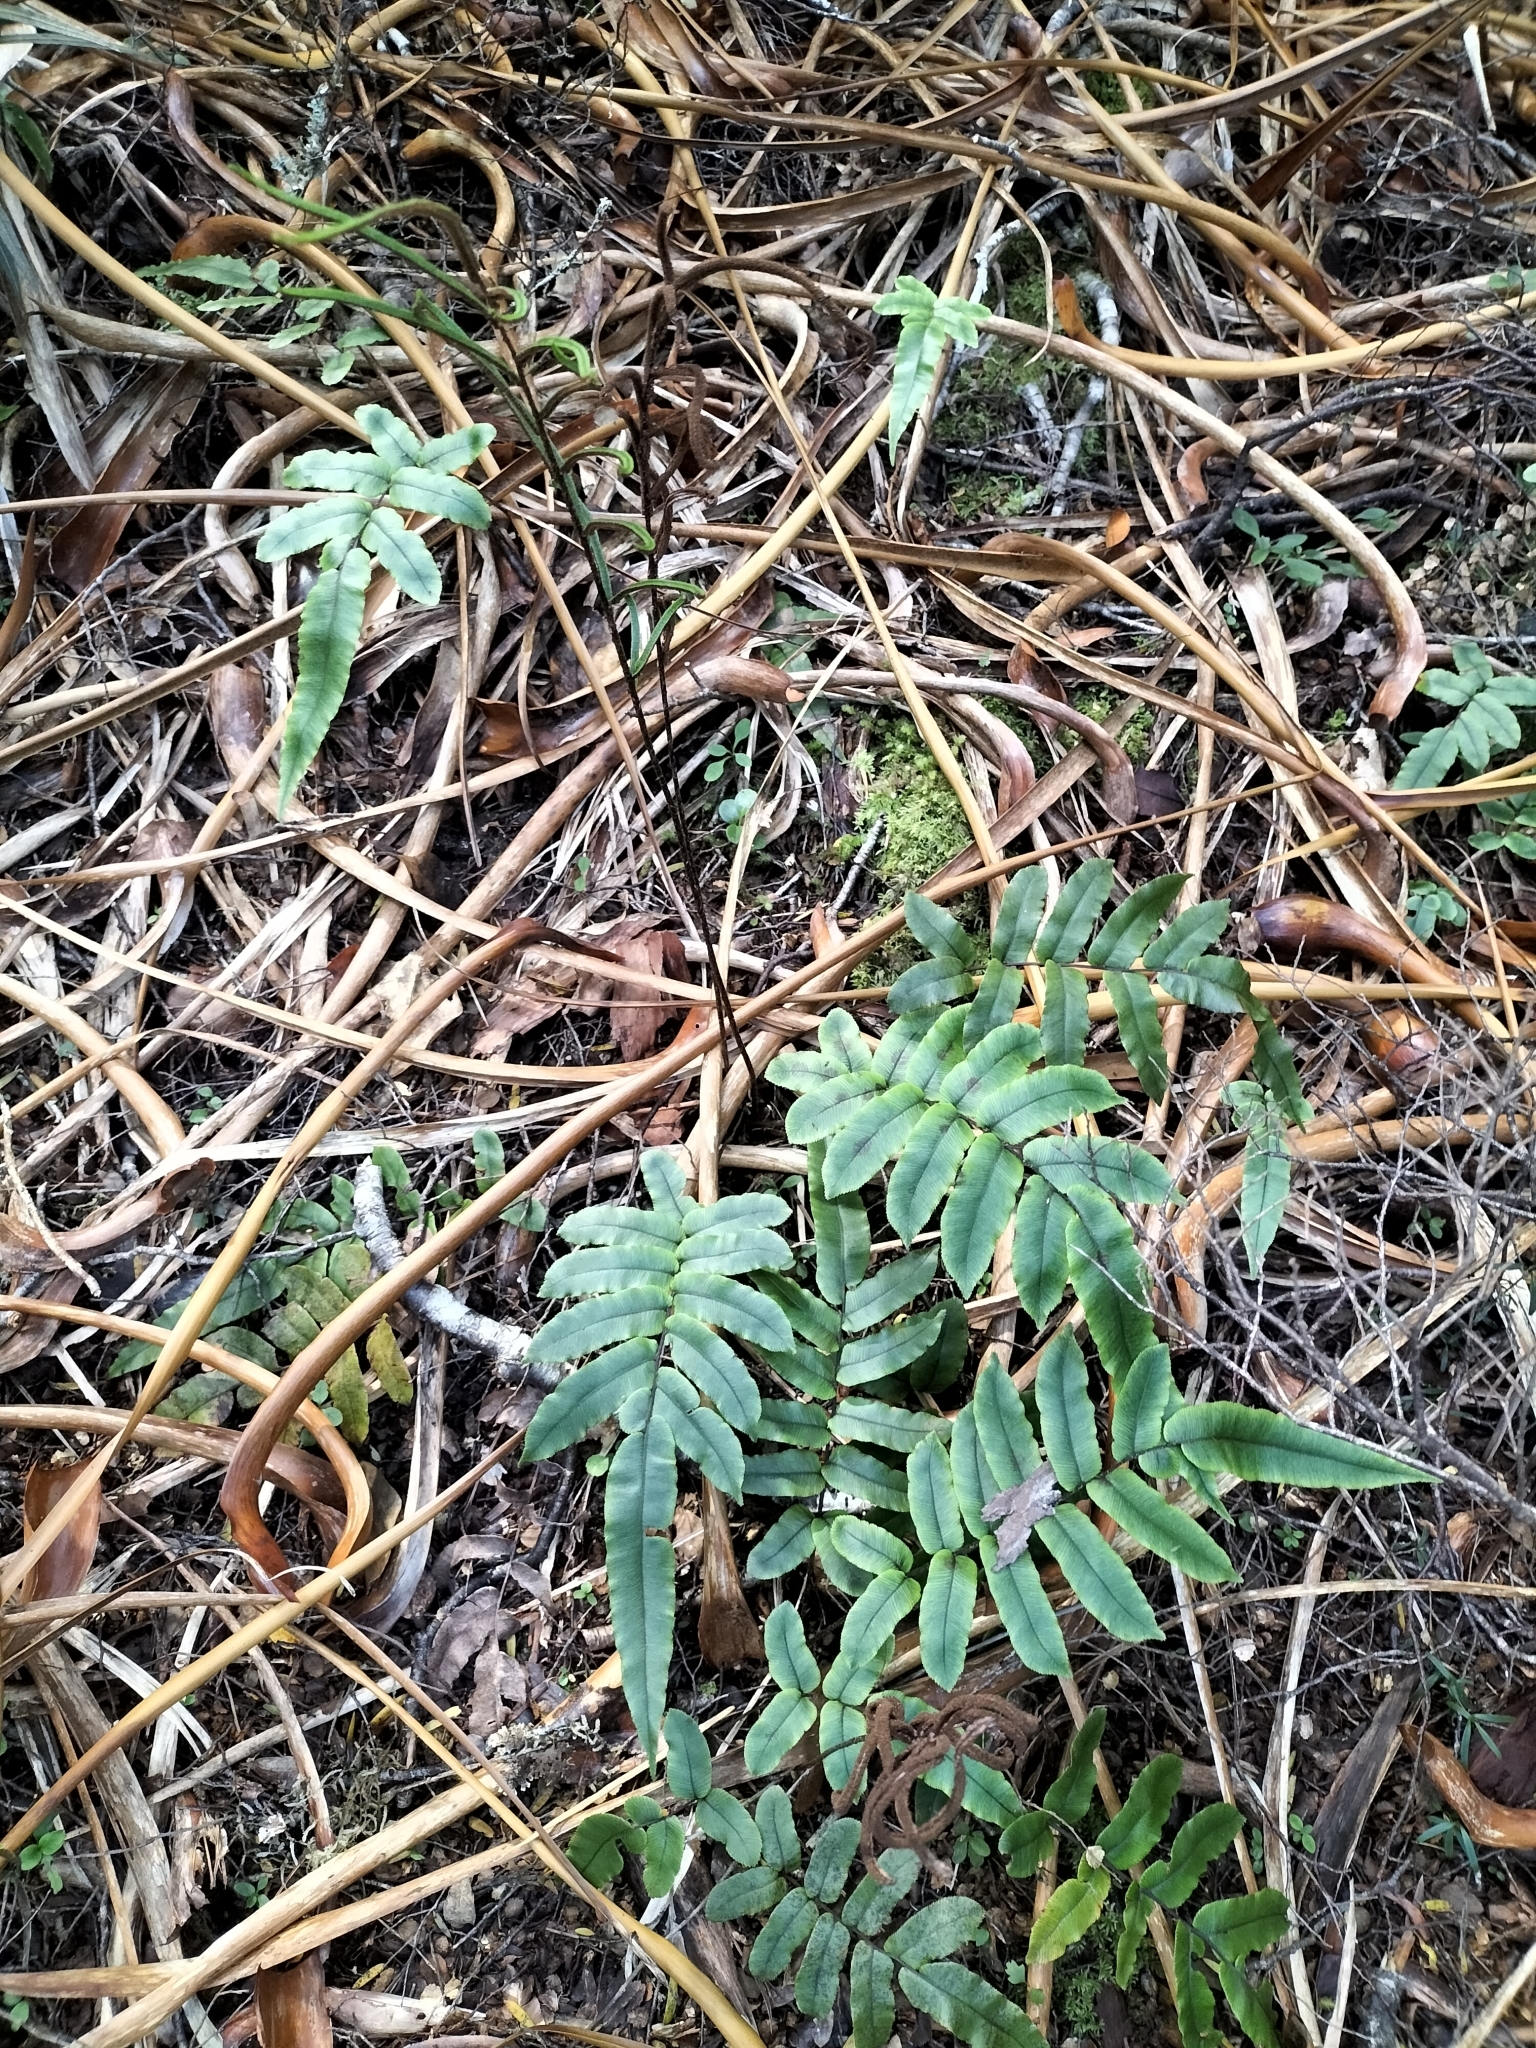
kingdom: Plantae
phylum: Tracheophyta
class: Polypodiopsida
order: Polypodiales
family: Blechnaceae
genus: Parablechnum
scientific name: Parablechnum procerum
